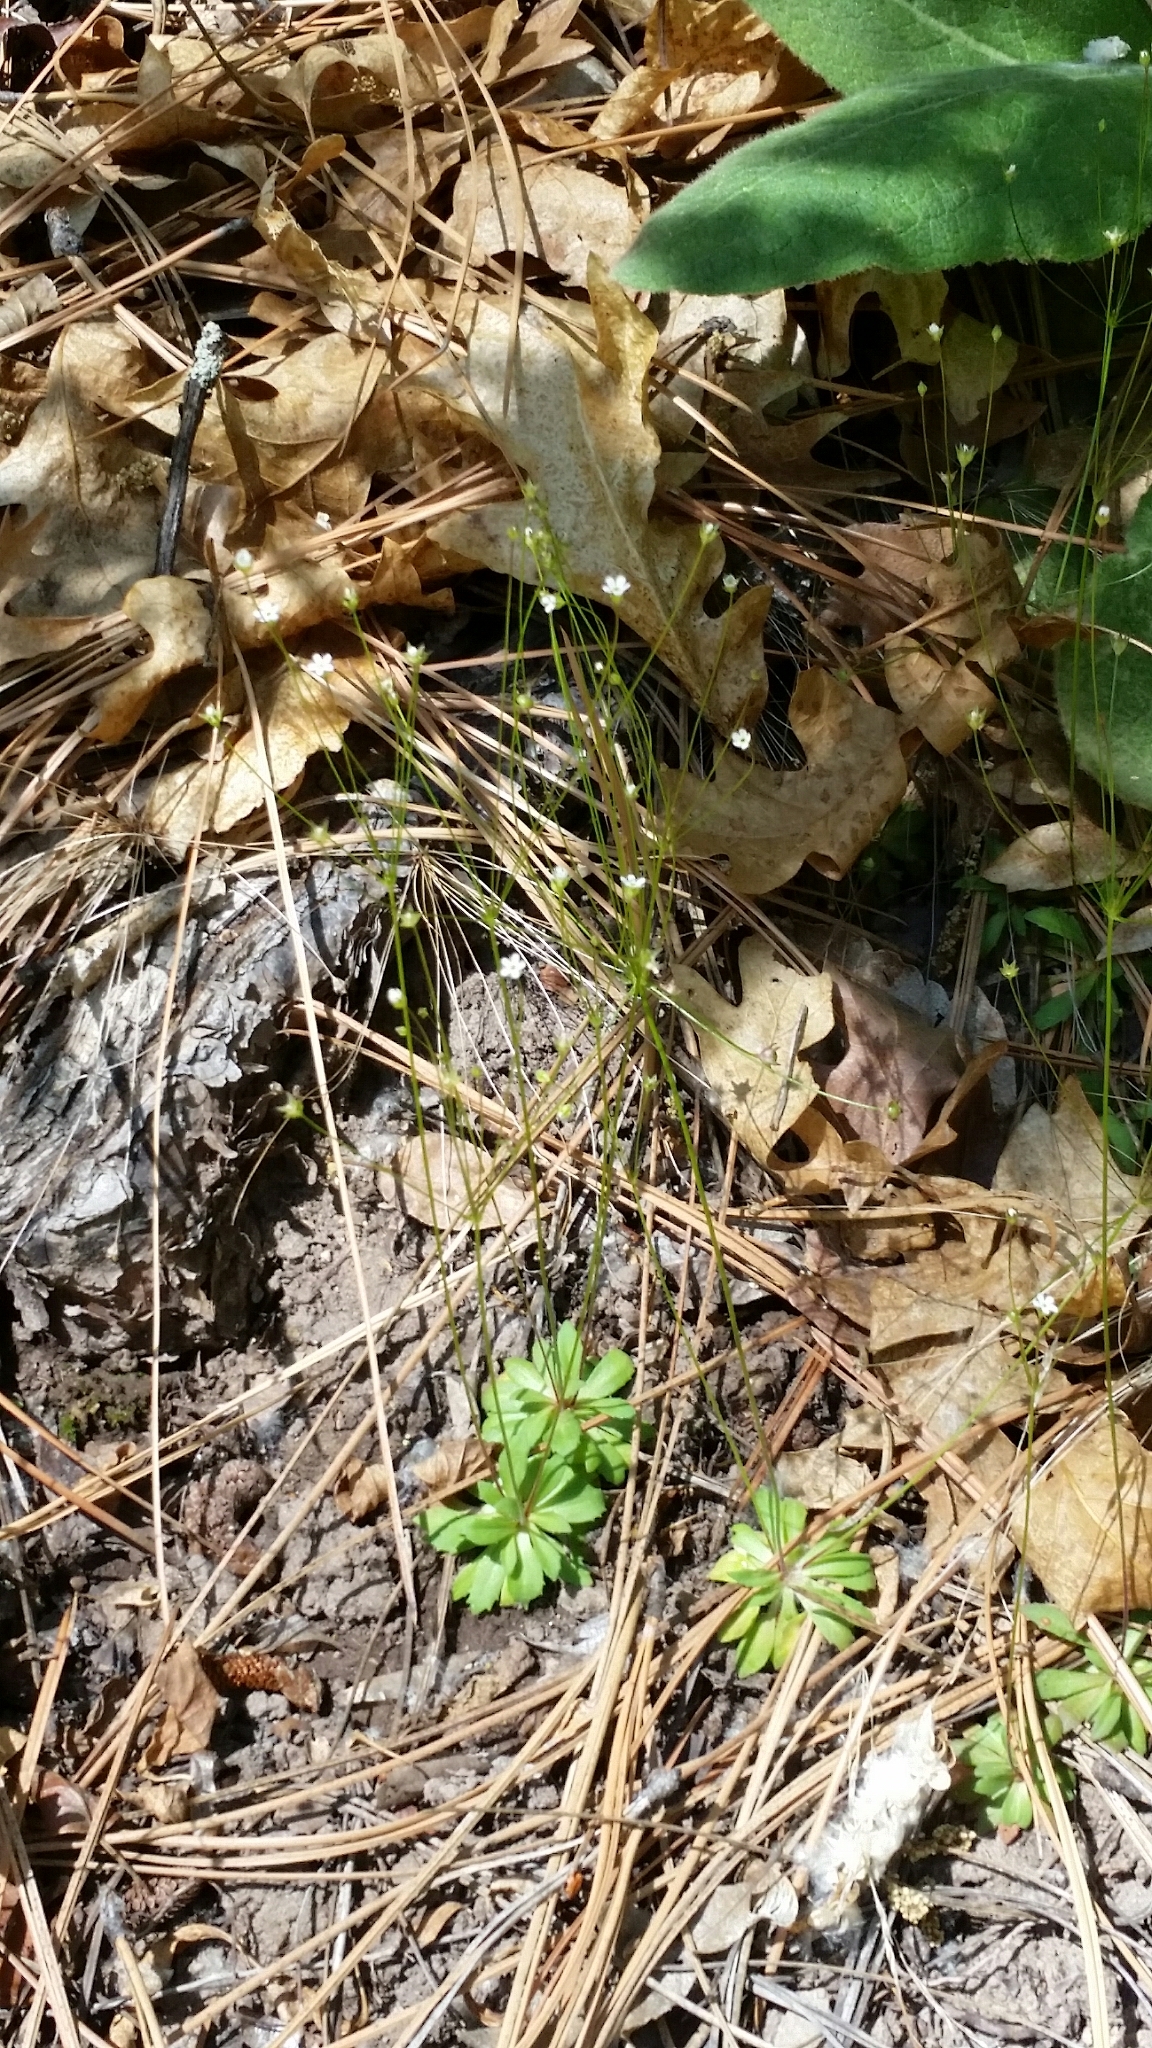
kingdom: Plantae
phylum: Tracheophyta
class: Magnoliopsida
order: Ericales
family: Primulaceae
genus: Androsace
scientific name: Androsace septentrionalis
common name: Hairy northern fairy-candelabra
